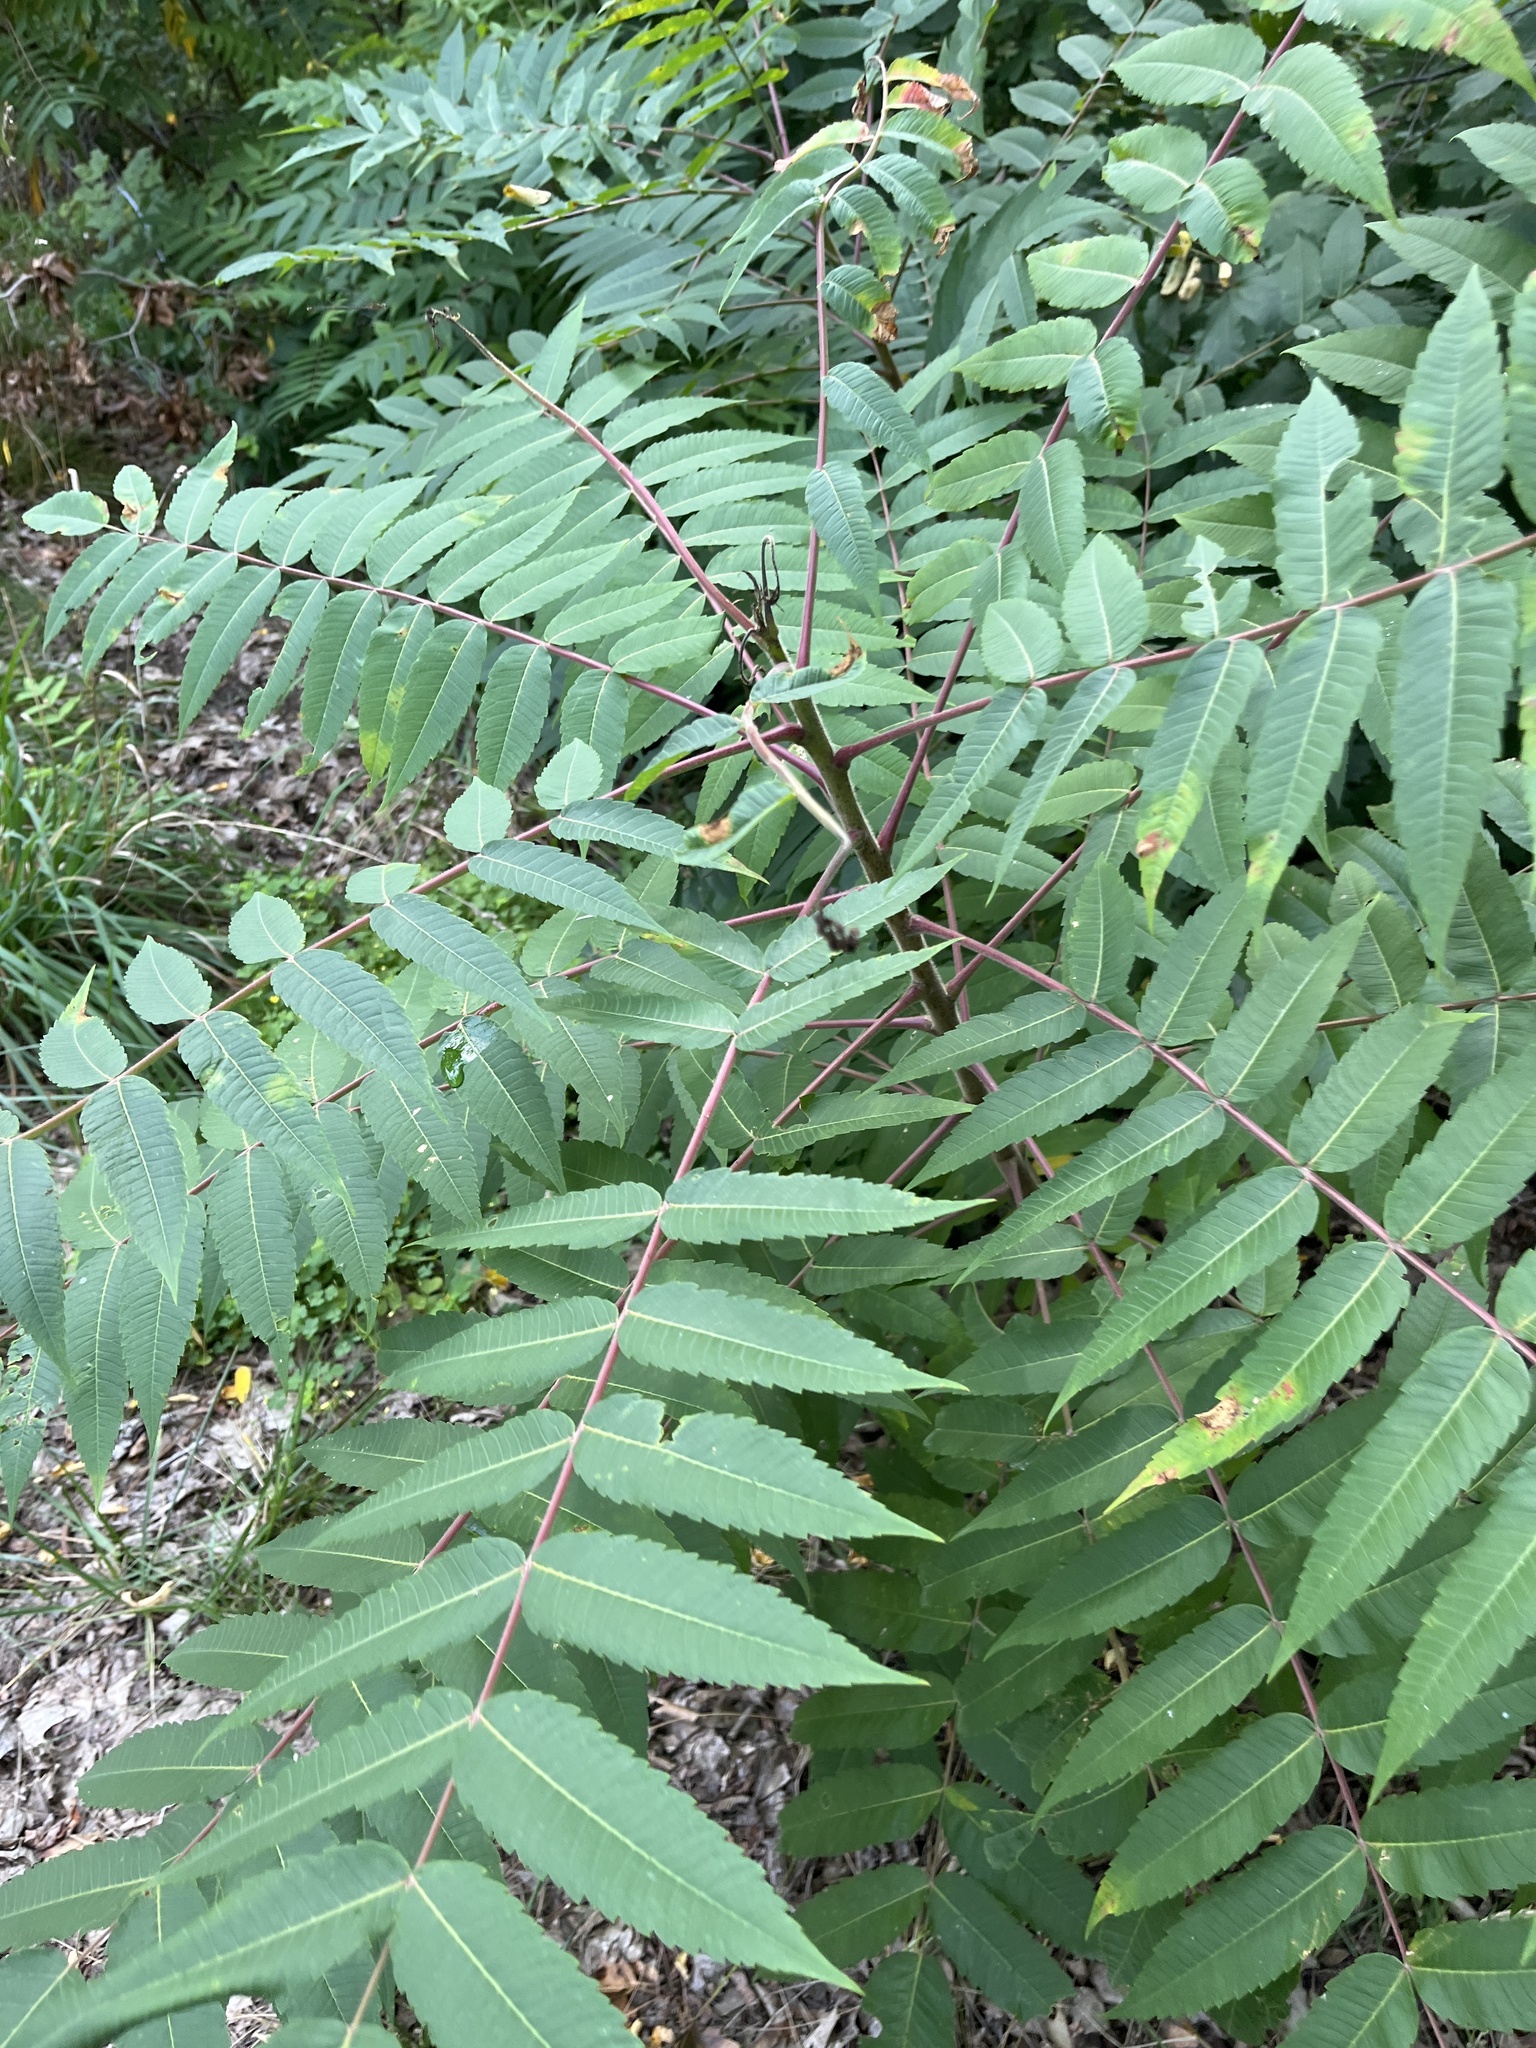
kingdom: Plantae
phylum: Tracheophyta
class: Magnoliopsida
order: Sapindales
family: Anacardiaceae
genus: Rhus
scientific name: Rhus typhina
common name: Staghorn sumac
